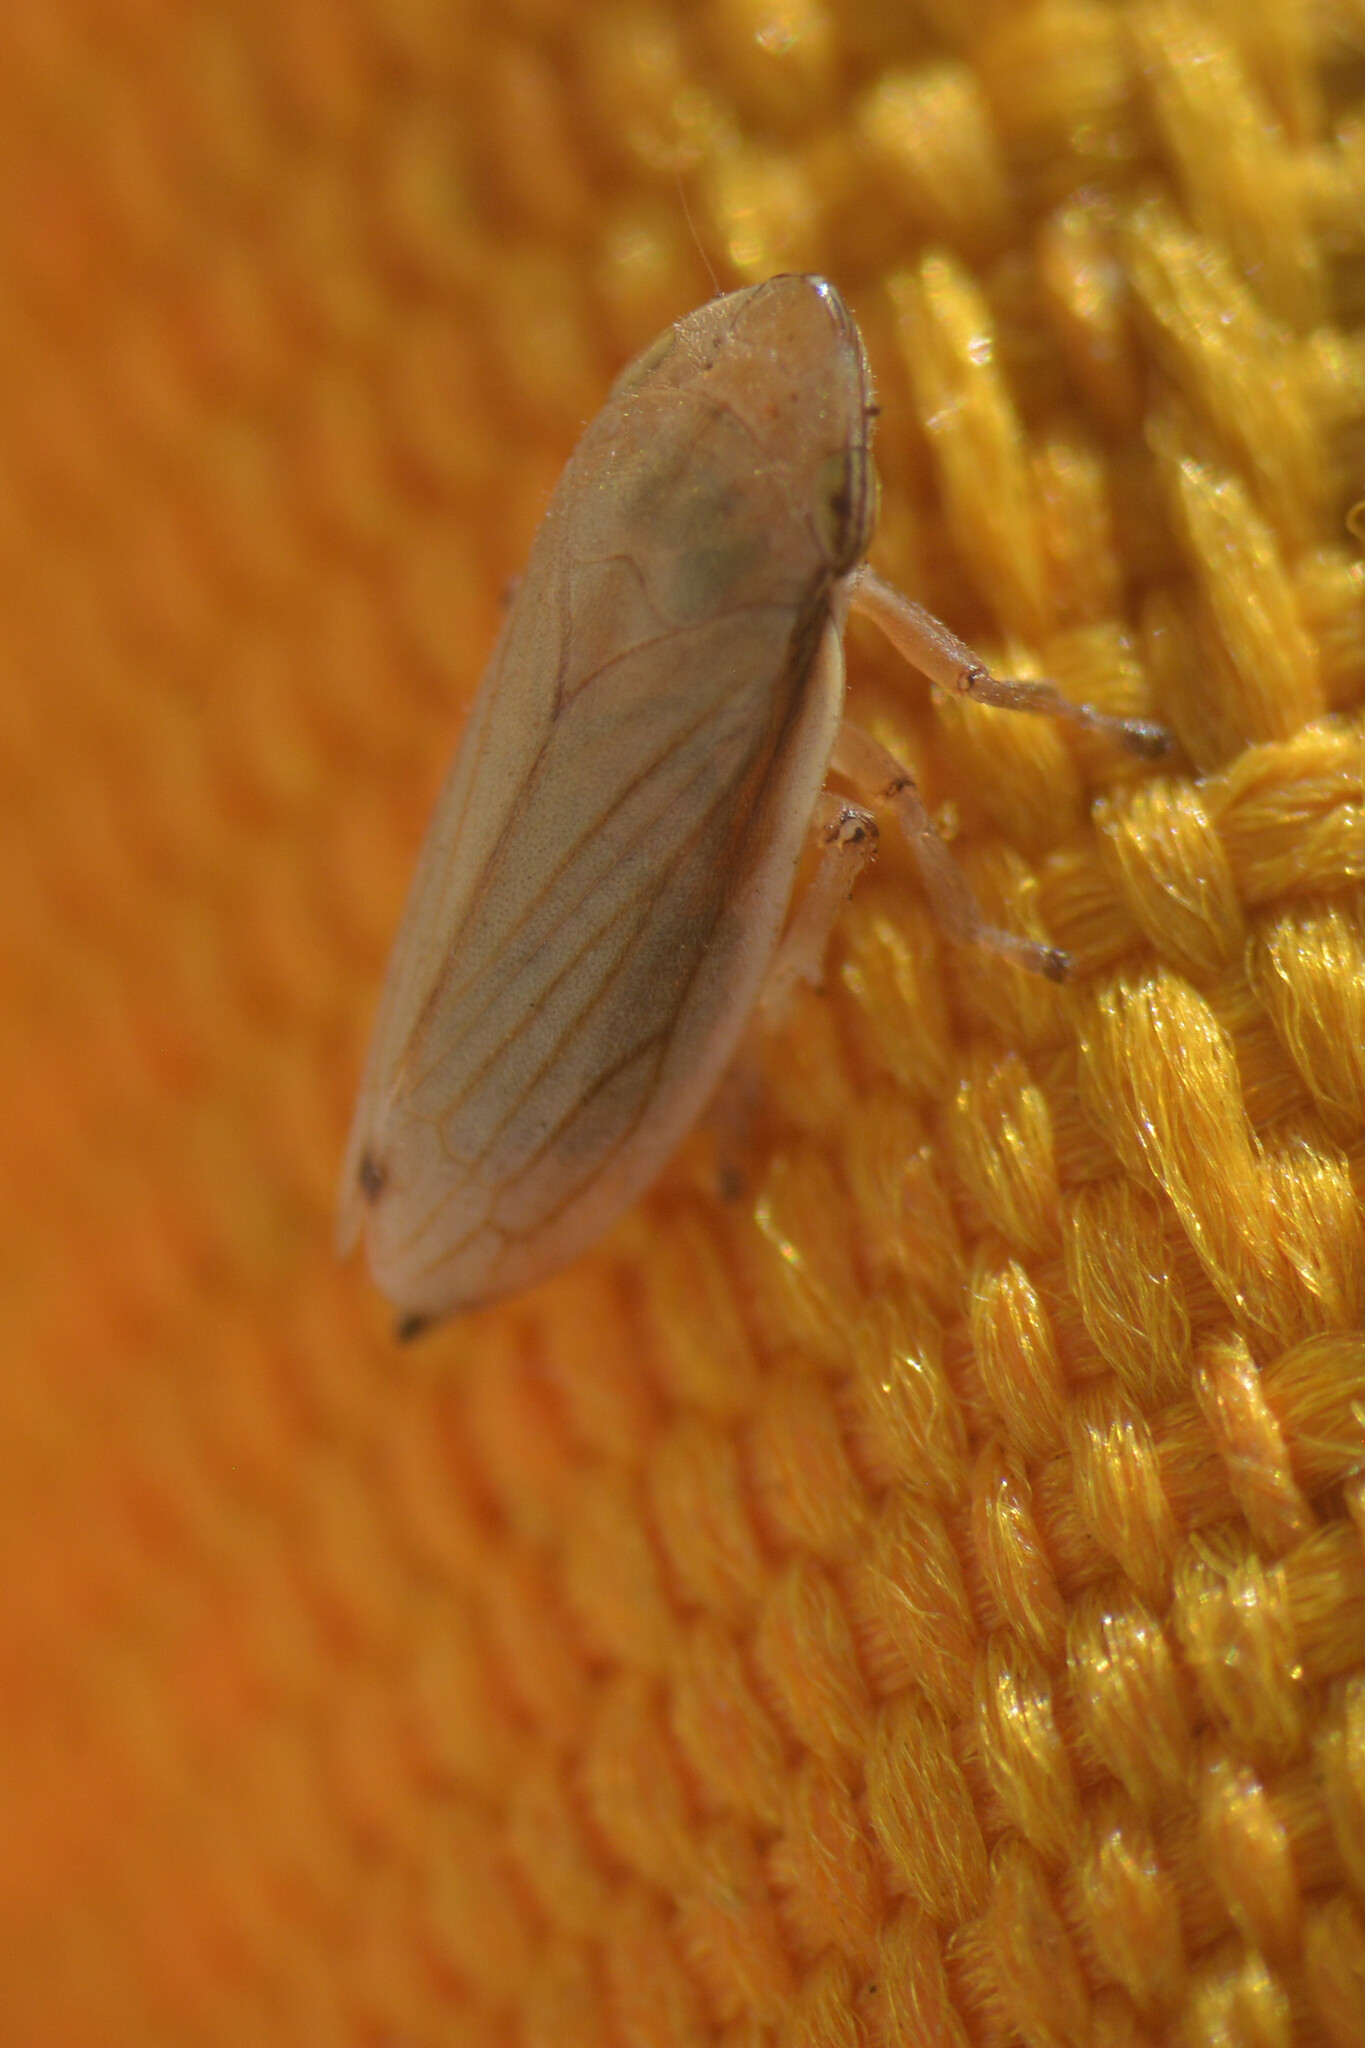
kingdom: Animalia
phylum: Arthropoda
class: Insecta
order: Hemiptera
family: Aphrophoridae
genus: Neophilaenus
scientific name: Neophilaenus lineatus
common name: Spittlebug
